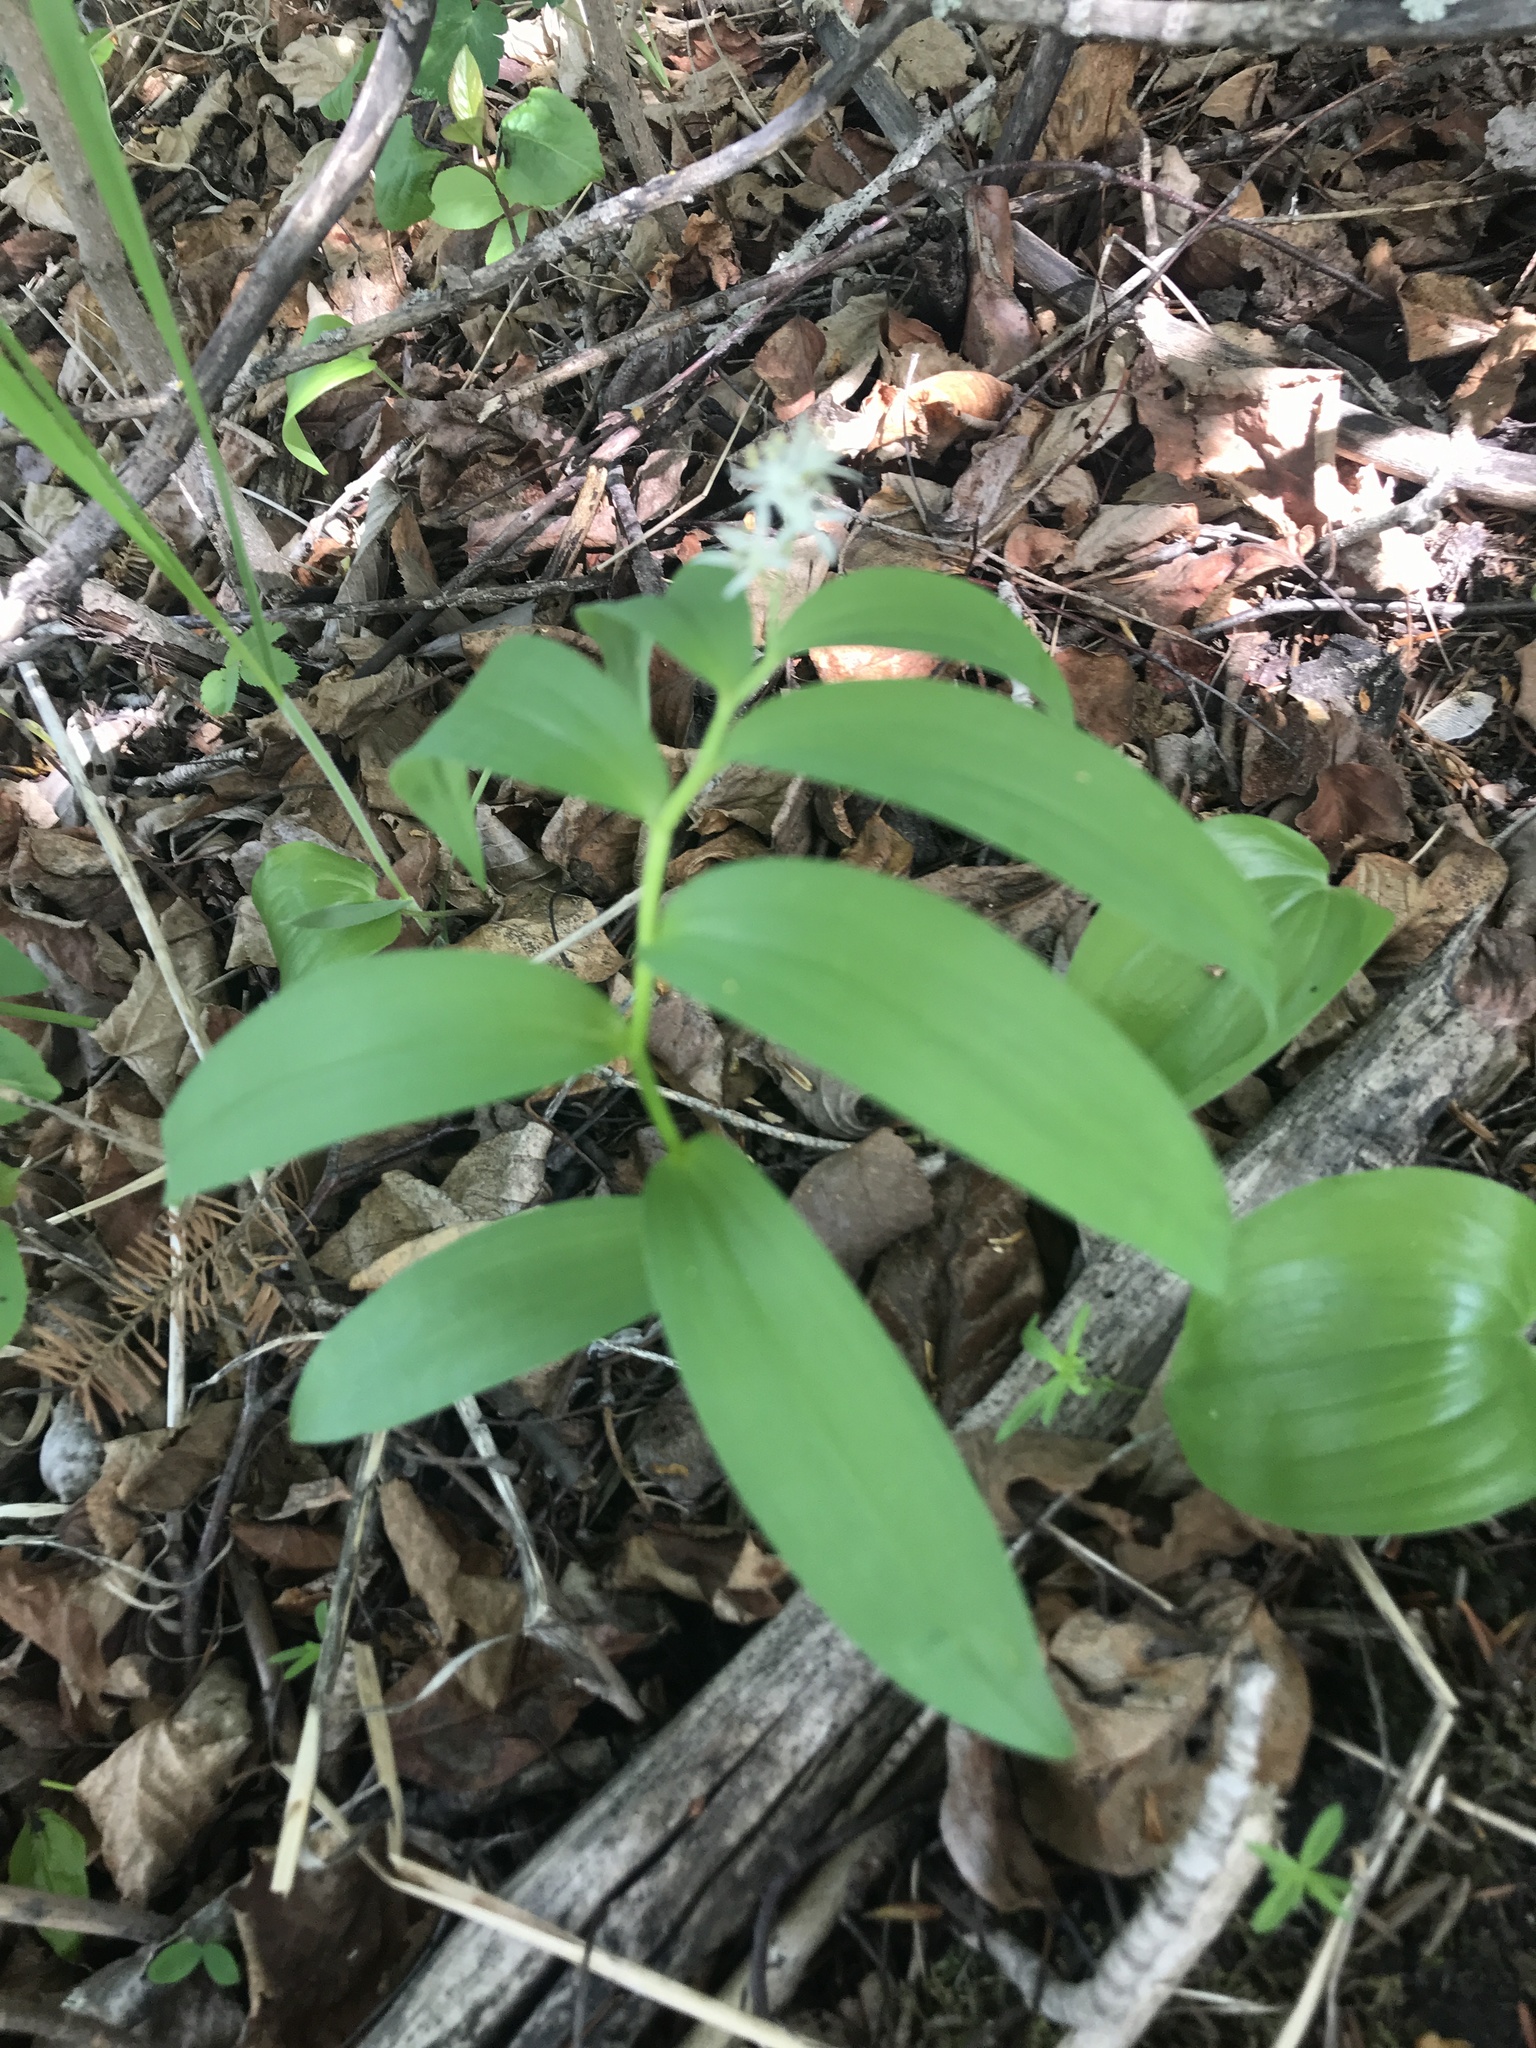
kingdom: Plantae
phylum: Tracheophyta
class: Liliopsida
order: Asparagales
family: Asparagaceae
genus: Maianthemum
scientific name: Maianthemum stellatum
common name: Little false solomon's seal
